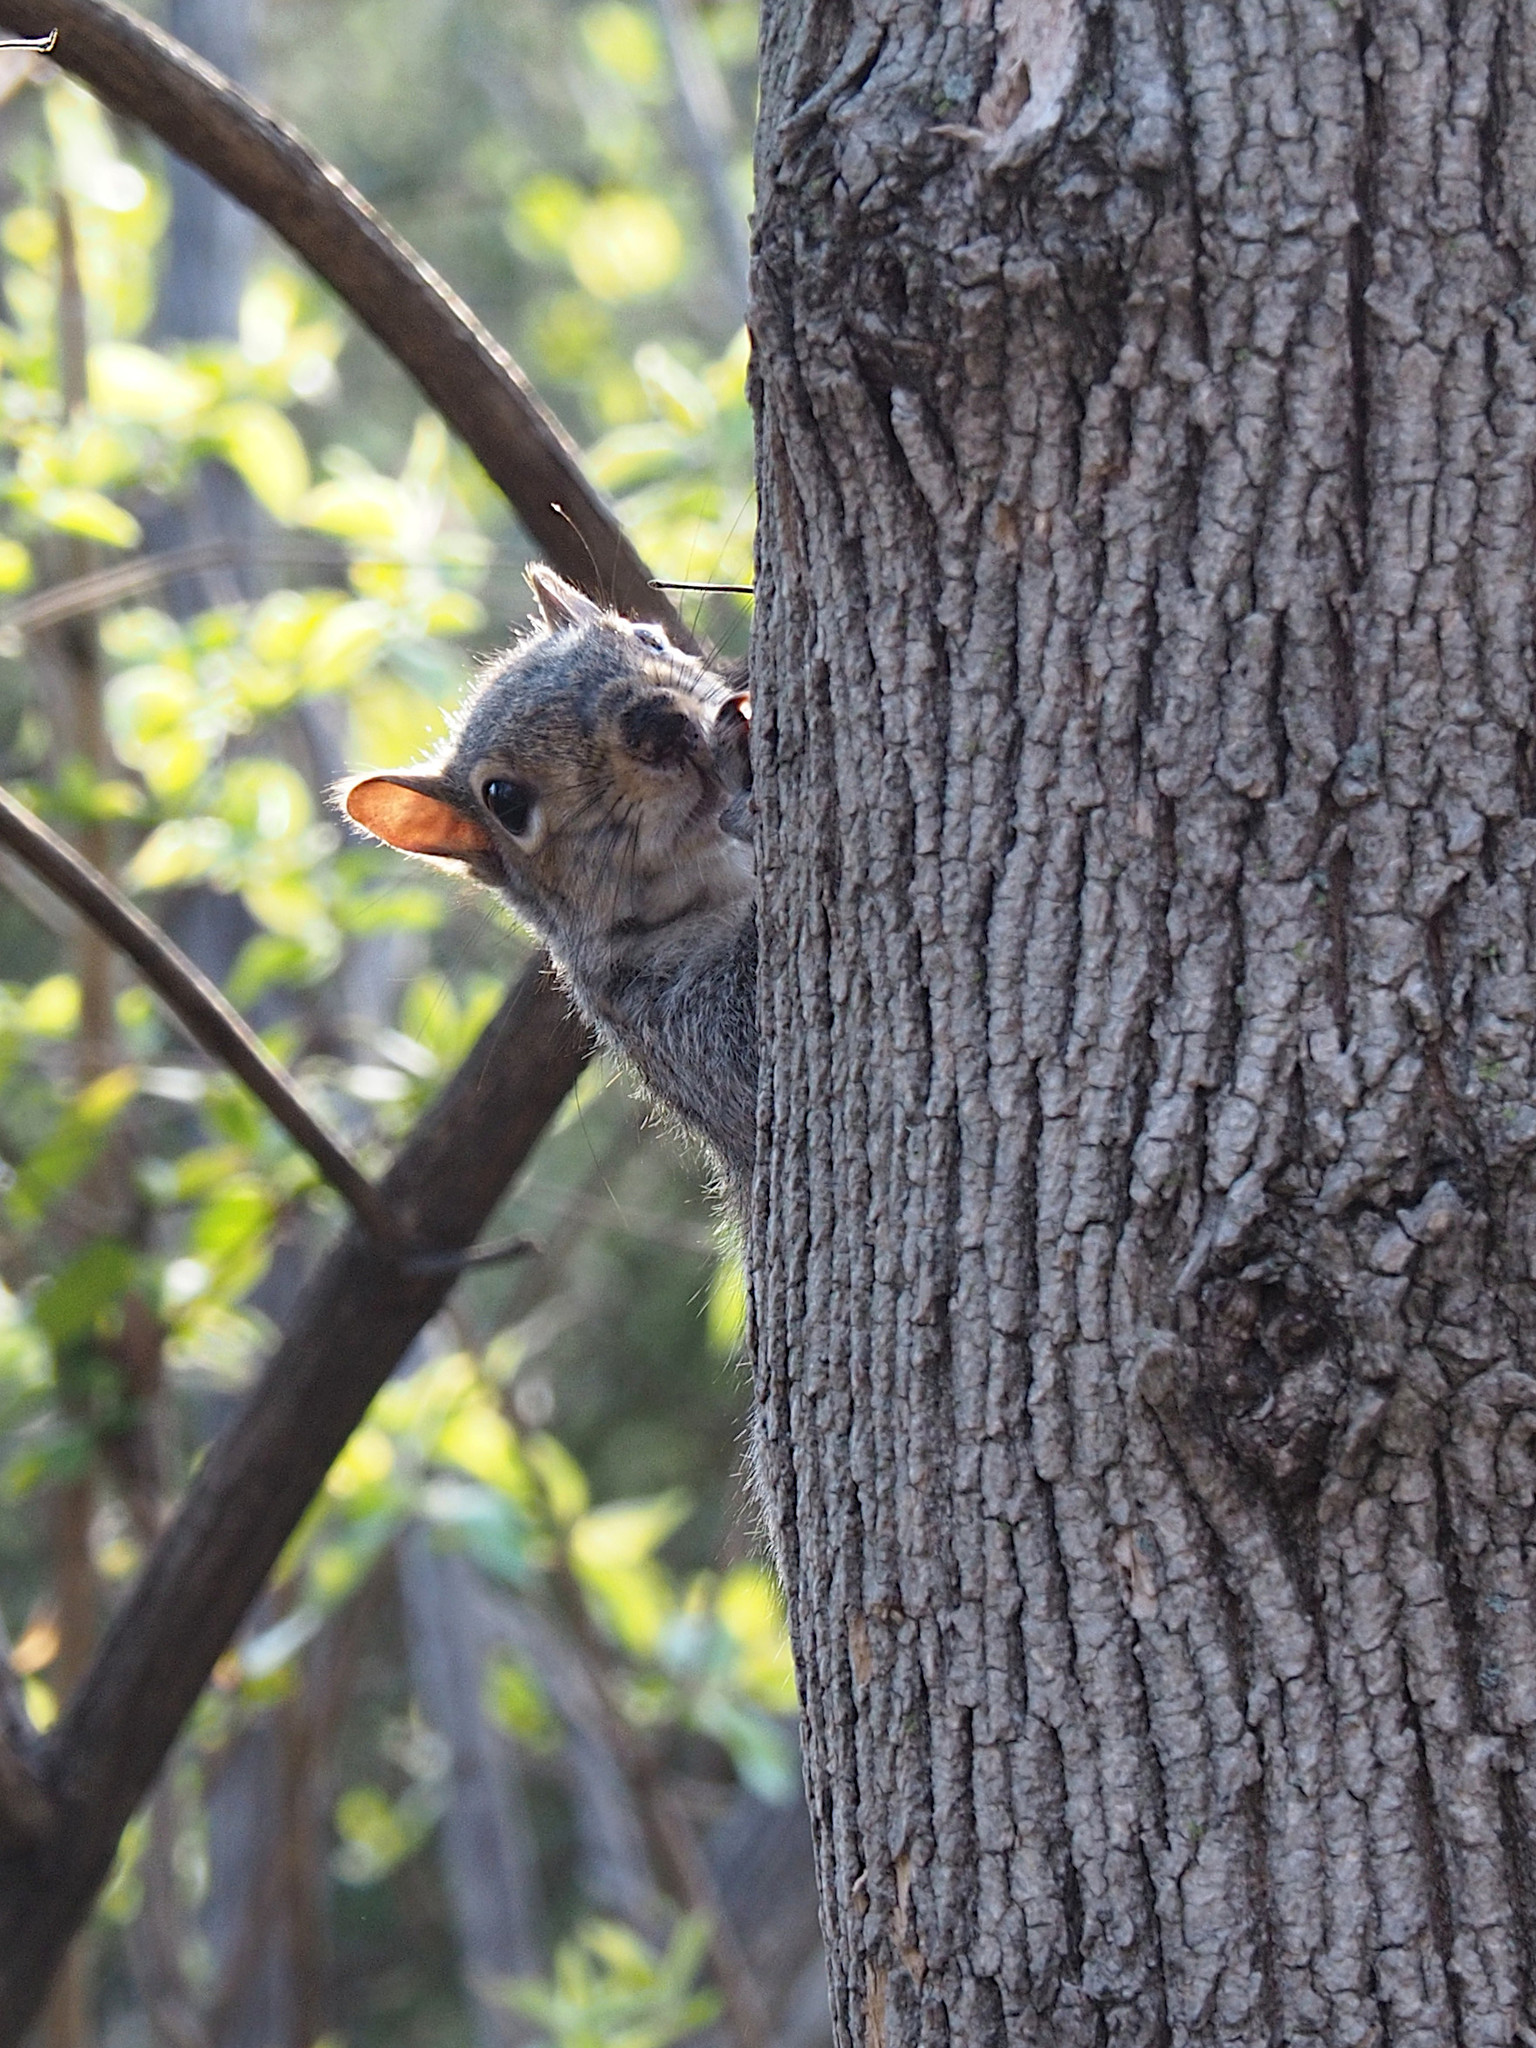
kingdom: Animalia
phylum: Chordata
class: Mammalia
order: Rodentia
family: Sciuridae
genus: Sciurus
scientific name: Sciurus carolinensis
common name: Eastern gray squirrel
